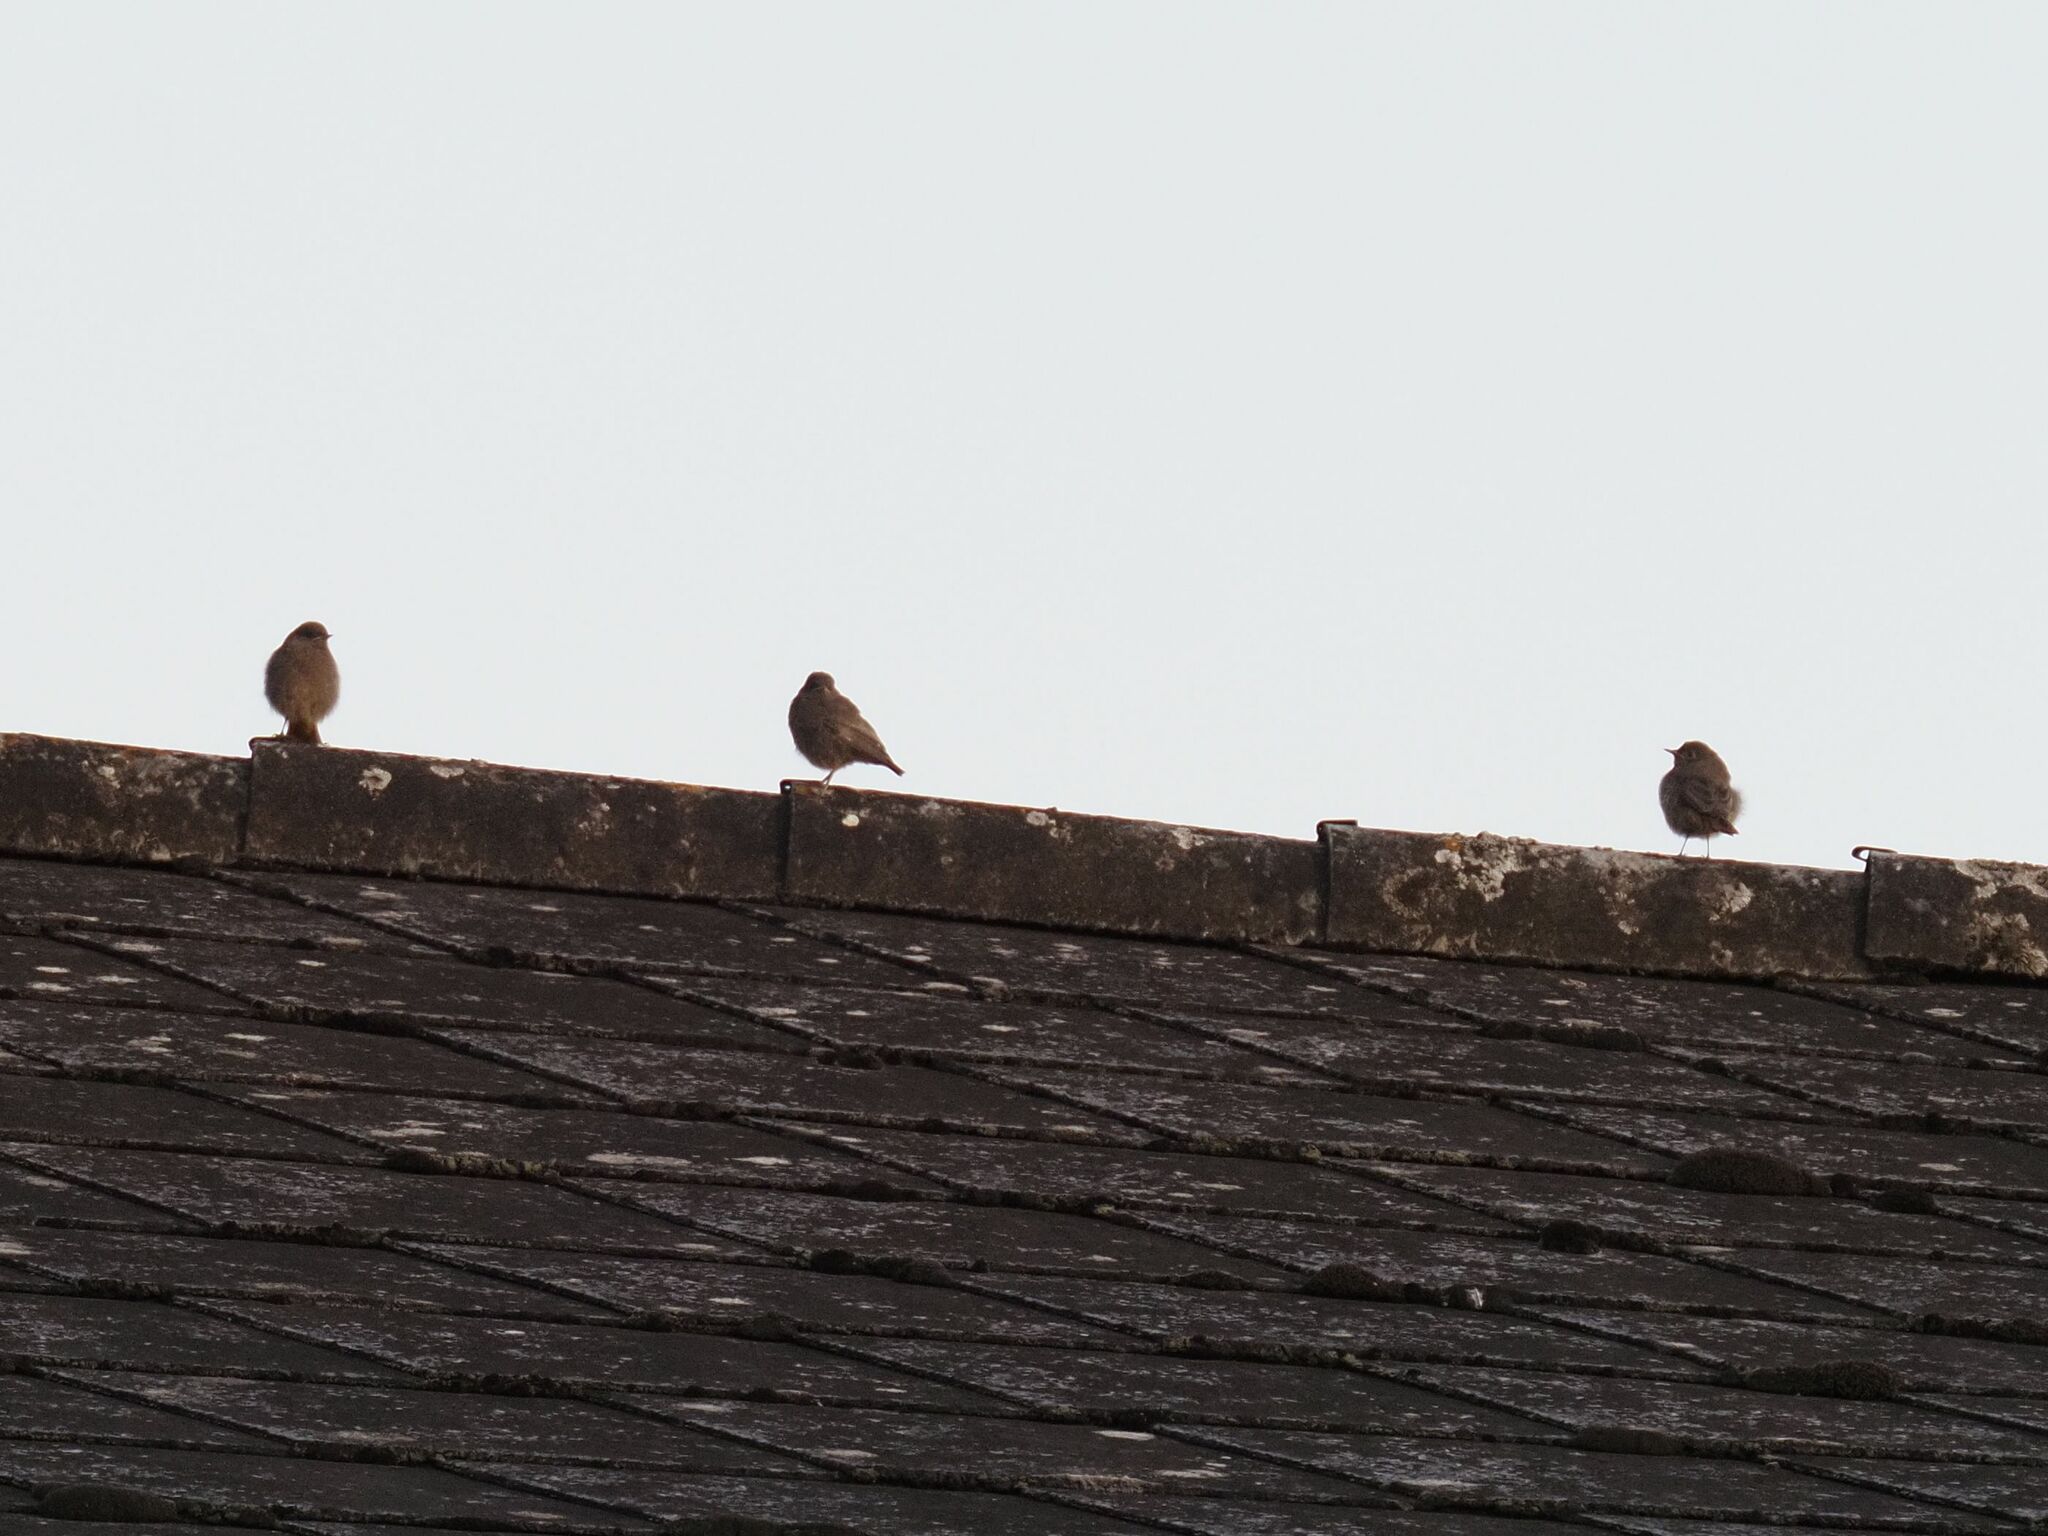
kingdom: Animalia
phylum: Chordata
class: Aves
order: Passeriformes
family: Muscicapidae
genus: Phoenicurus
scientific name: Phoenicurus ochruros
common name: Black redstart
